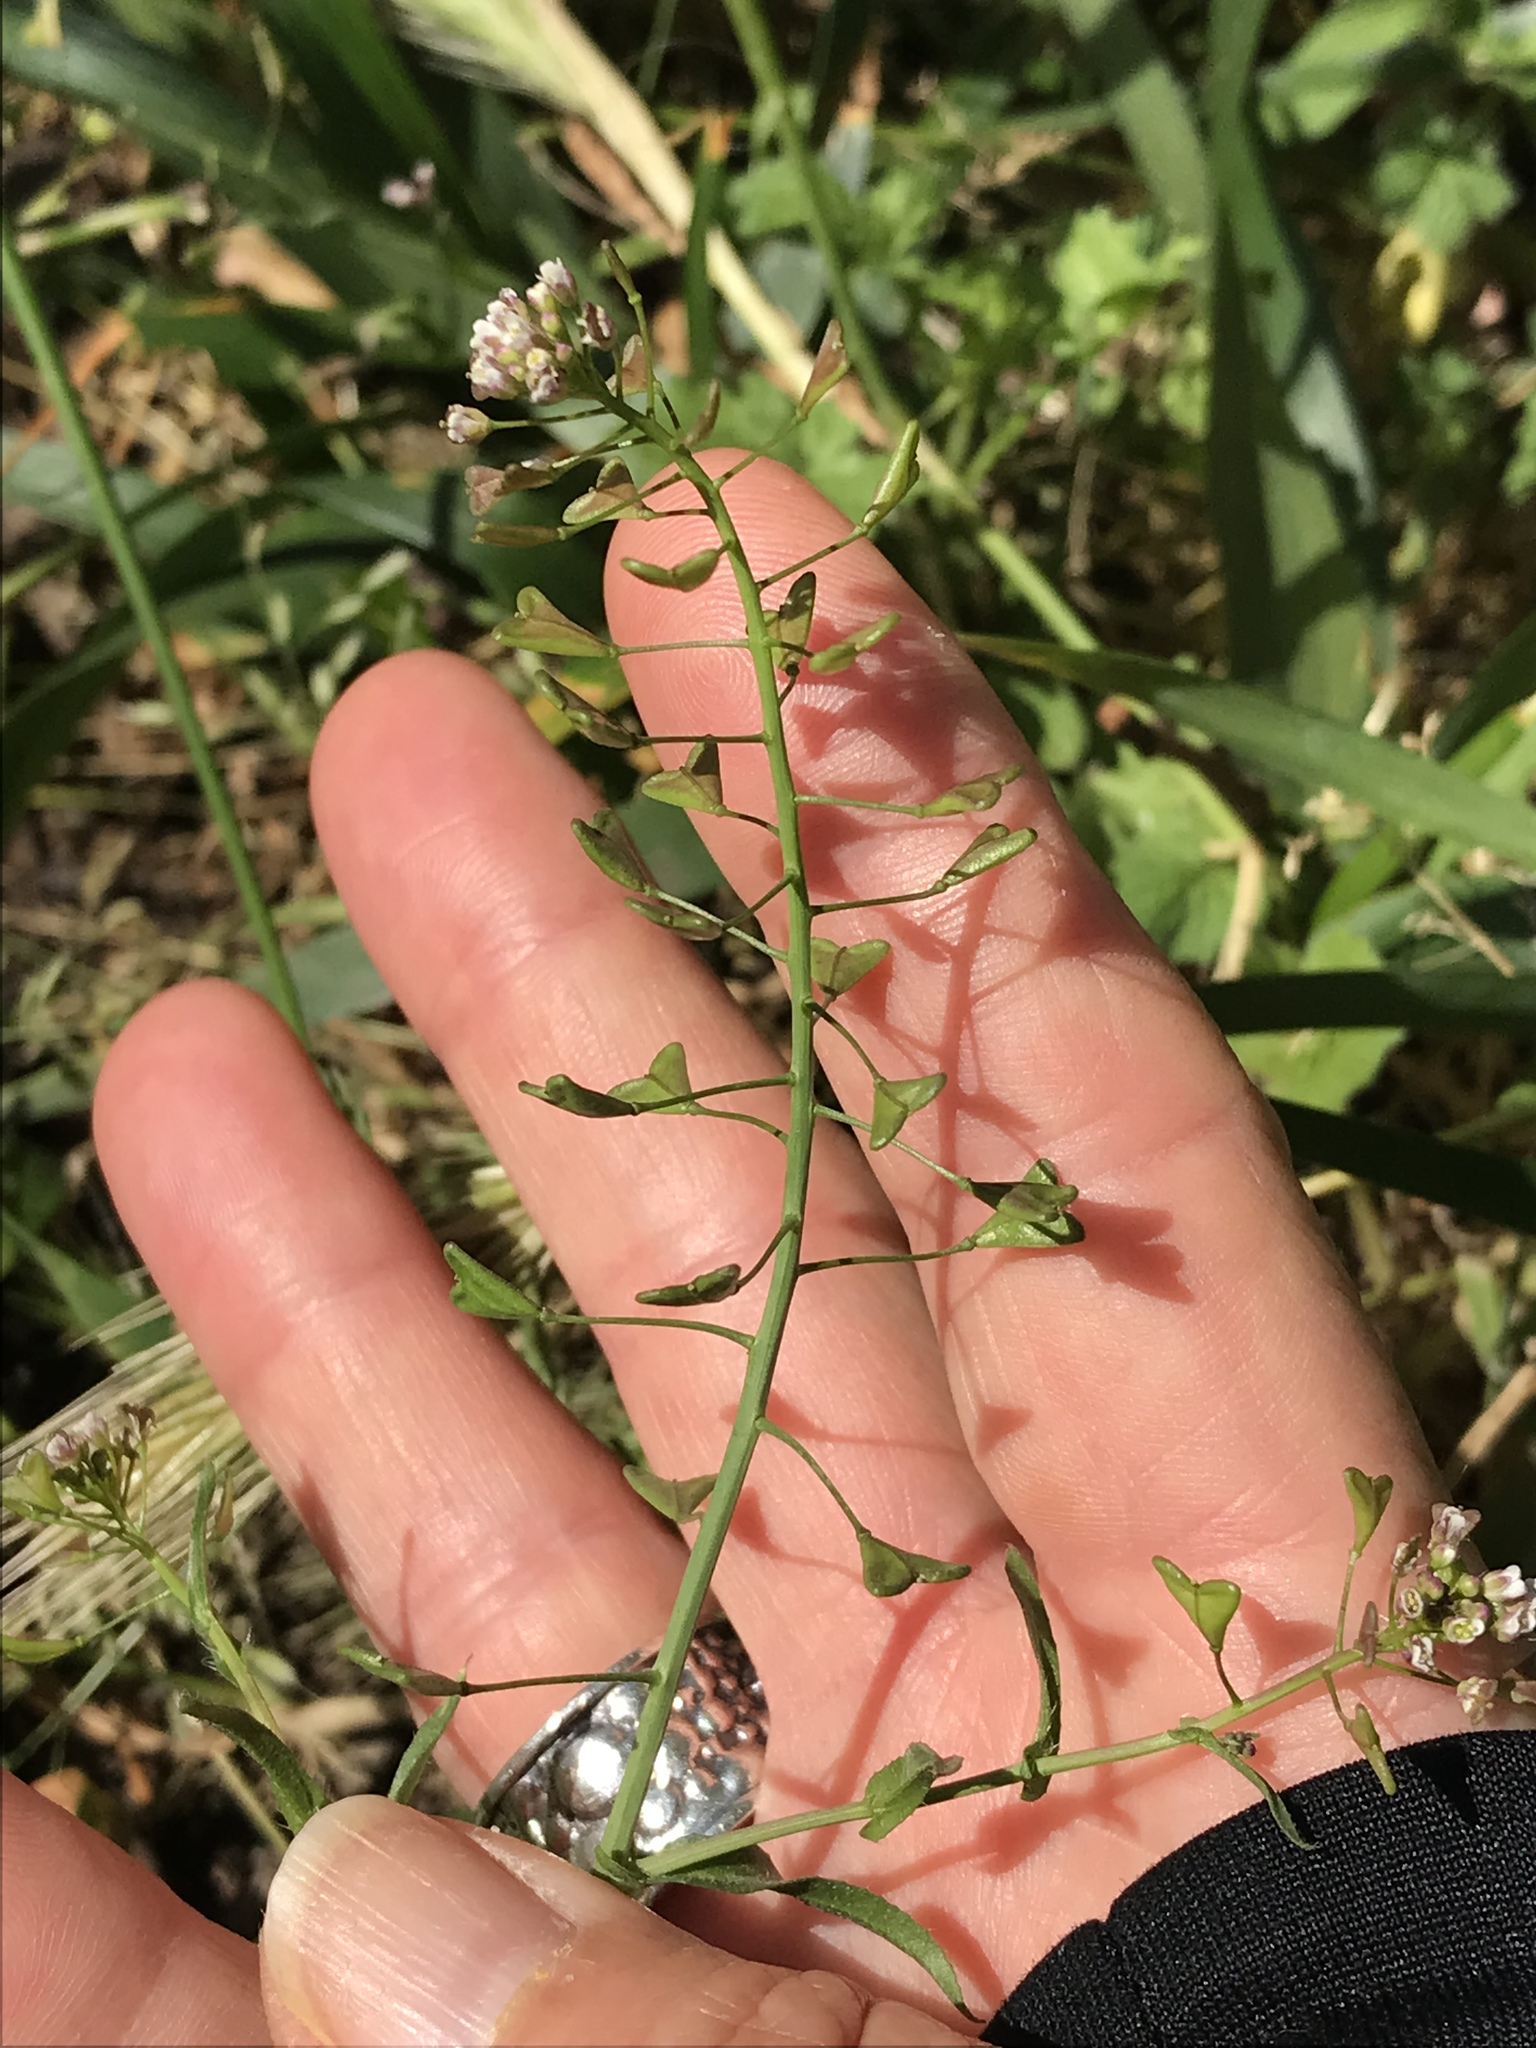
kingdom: Plantae
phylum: Tracheophyta
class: Magnoliopsida
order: Brassicales
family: Brassicaceae
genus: Capsella
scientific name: Capsella bursa-pastoris
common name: Shepherd's purse
